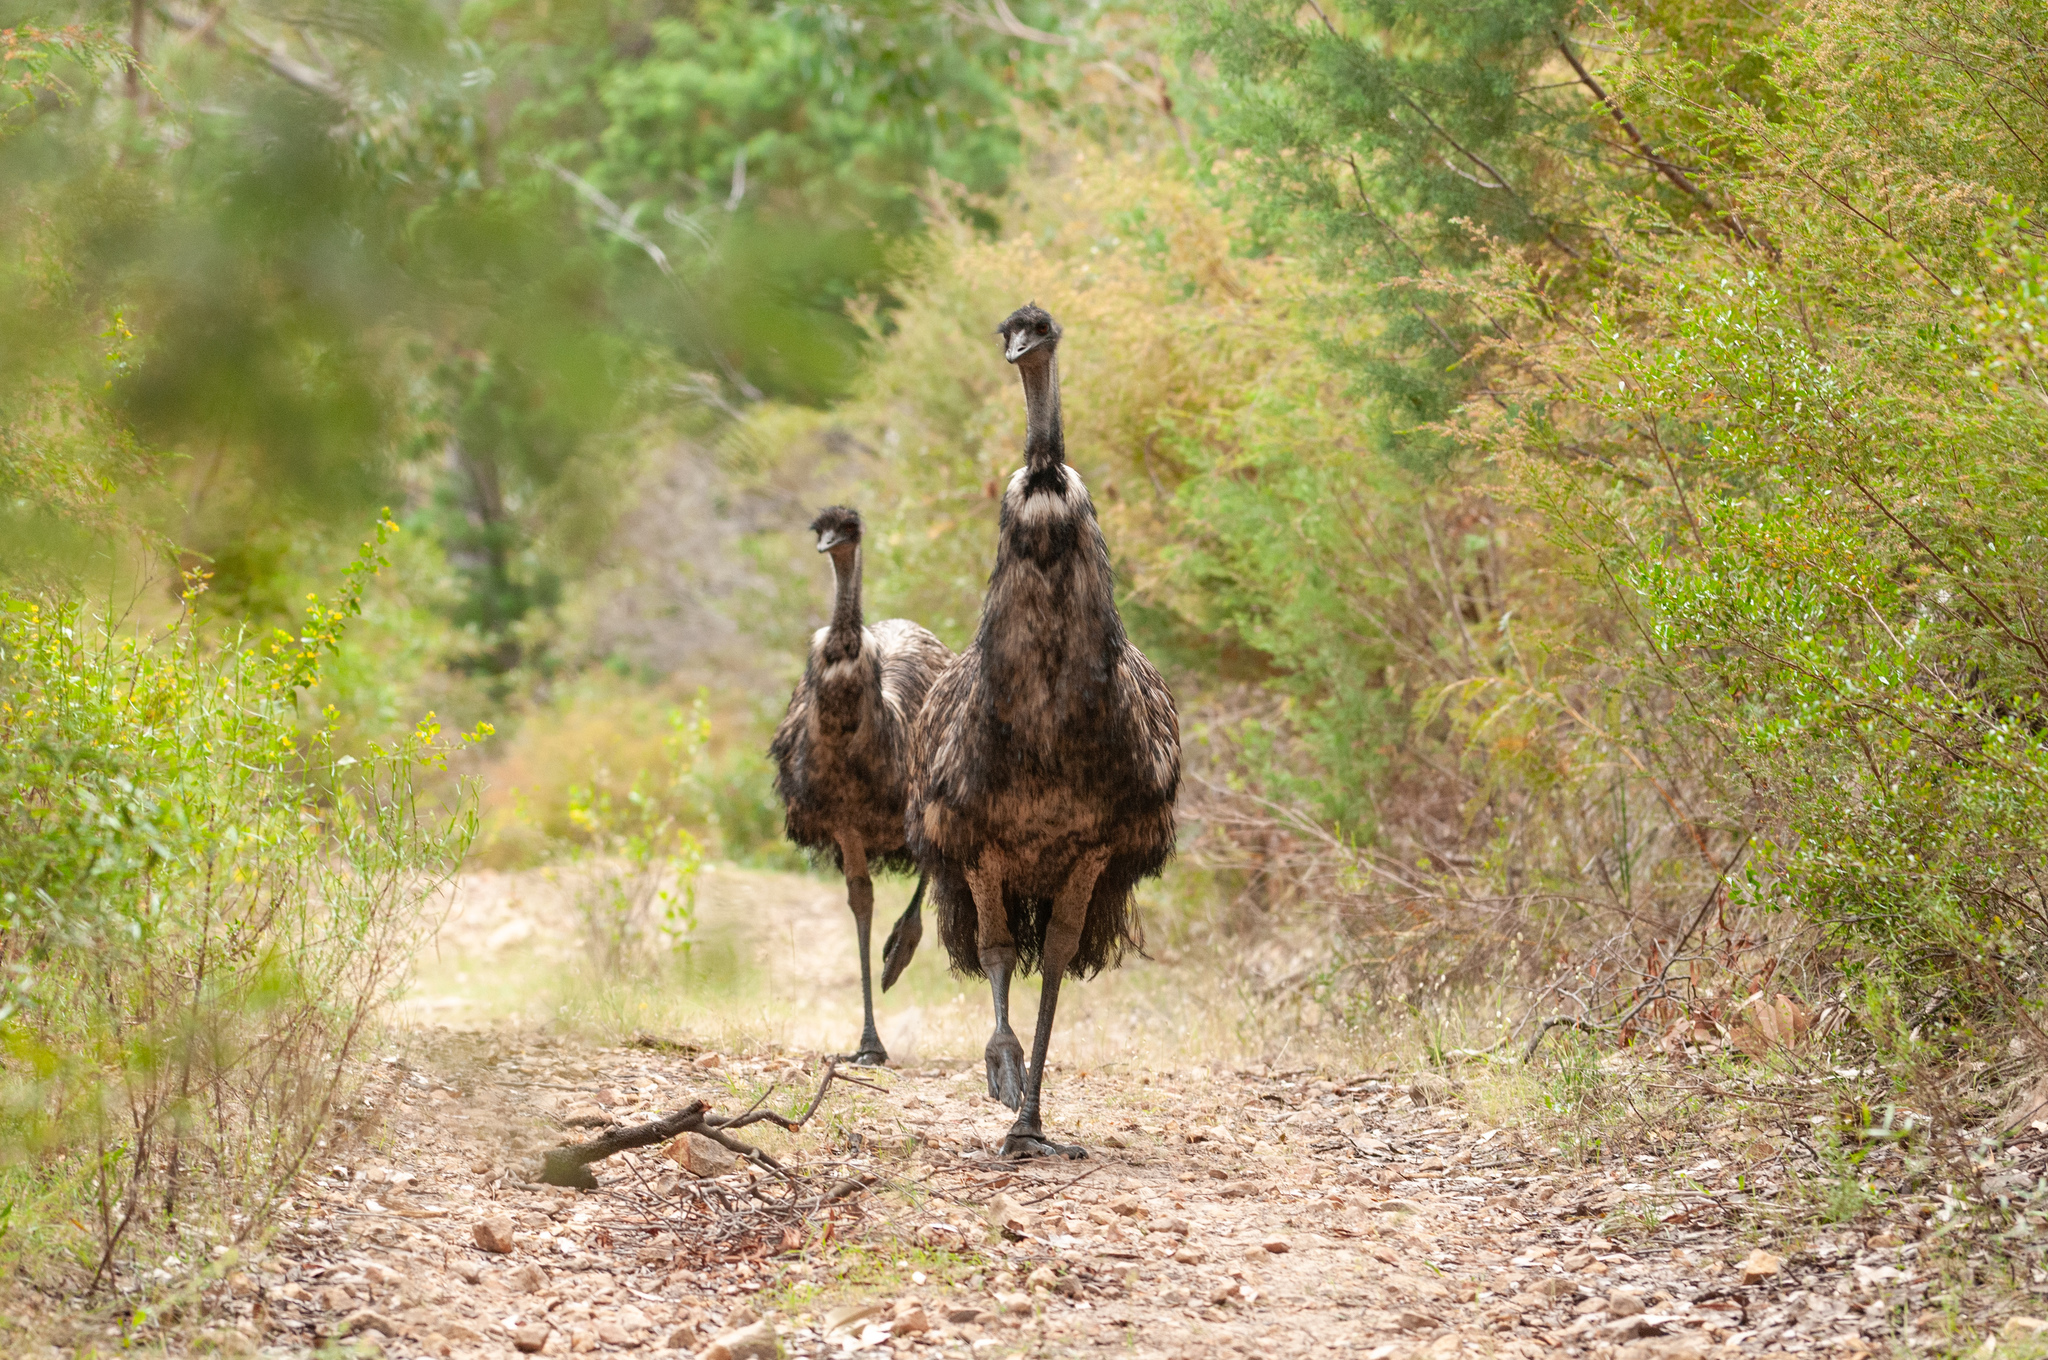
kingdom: Animalia
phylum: Chordata
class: Aves
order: Casuariiformes
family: Dromaiidae
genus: Dromaius
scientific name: Dromaius novaehollandiae
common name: Emu
